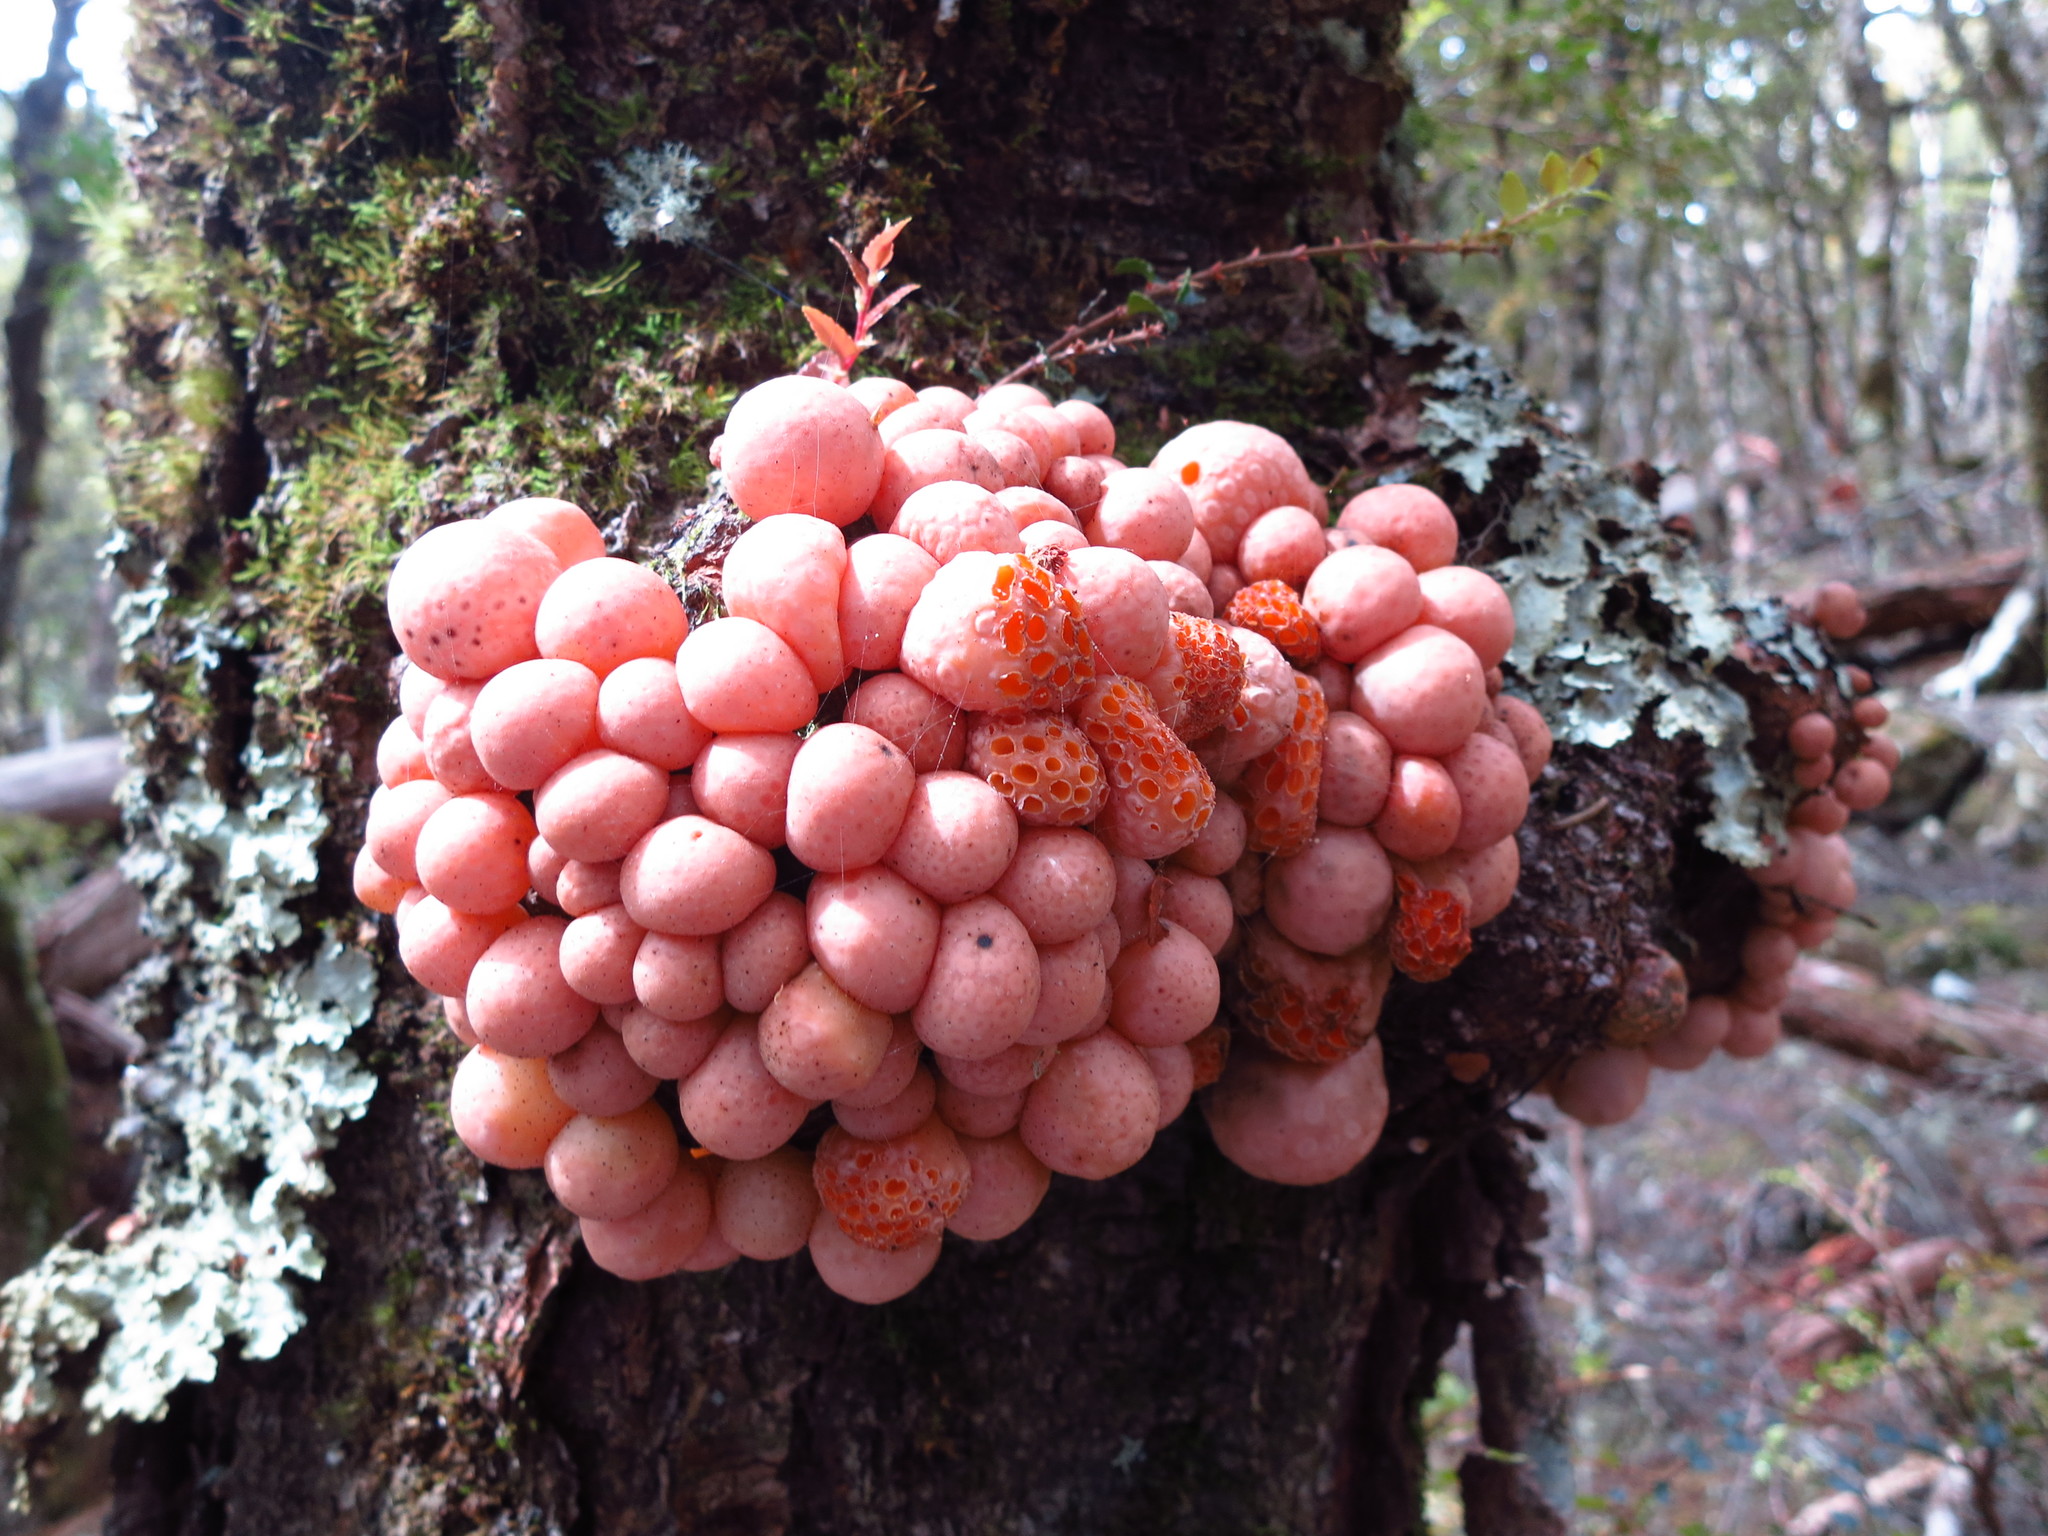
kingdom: Fungi
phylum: Ascomycota
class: Leotiomycetes
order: Cyttariales
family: Cyttariaceae
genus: Cyttaria
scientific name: Cyttaria gunnii
